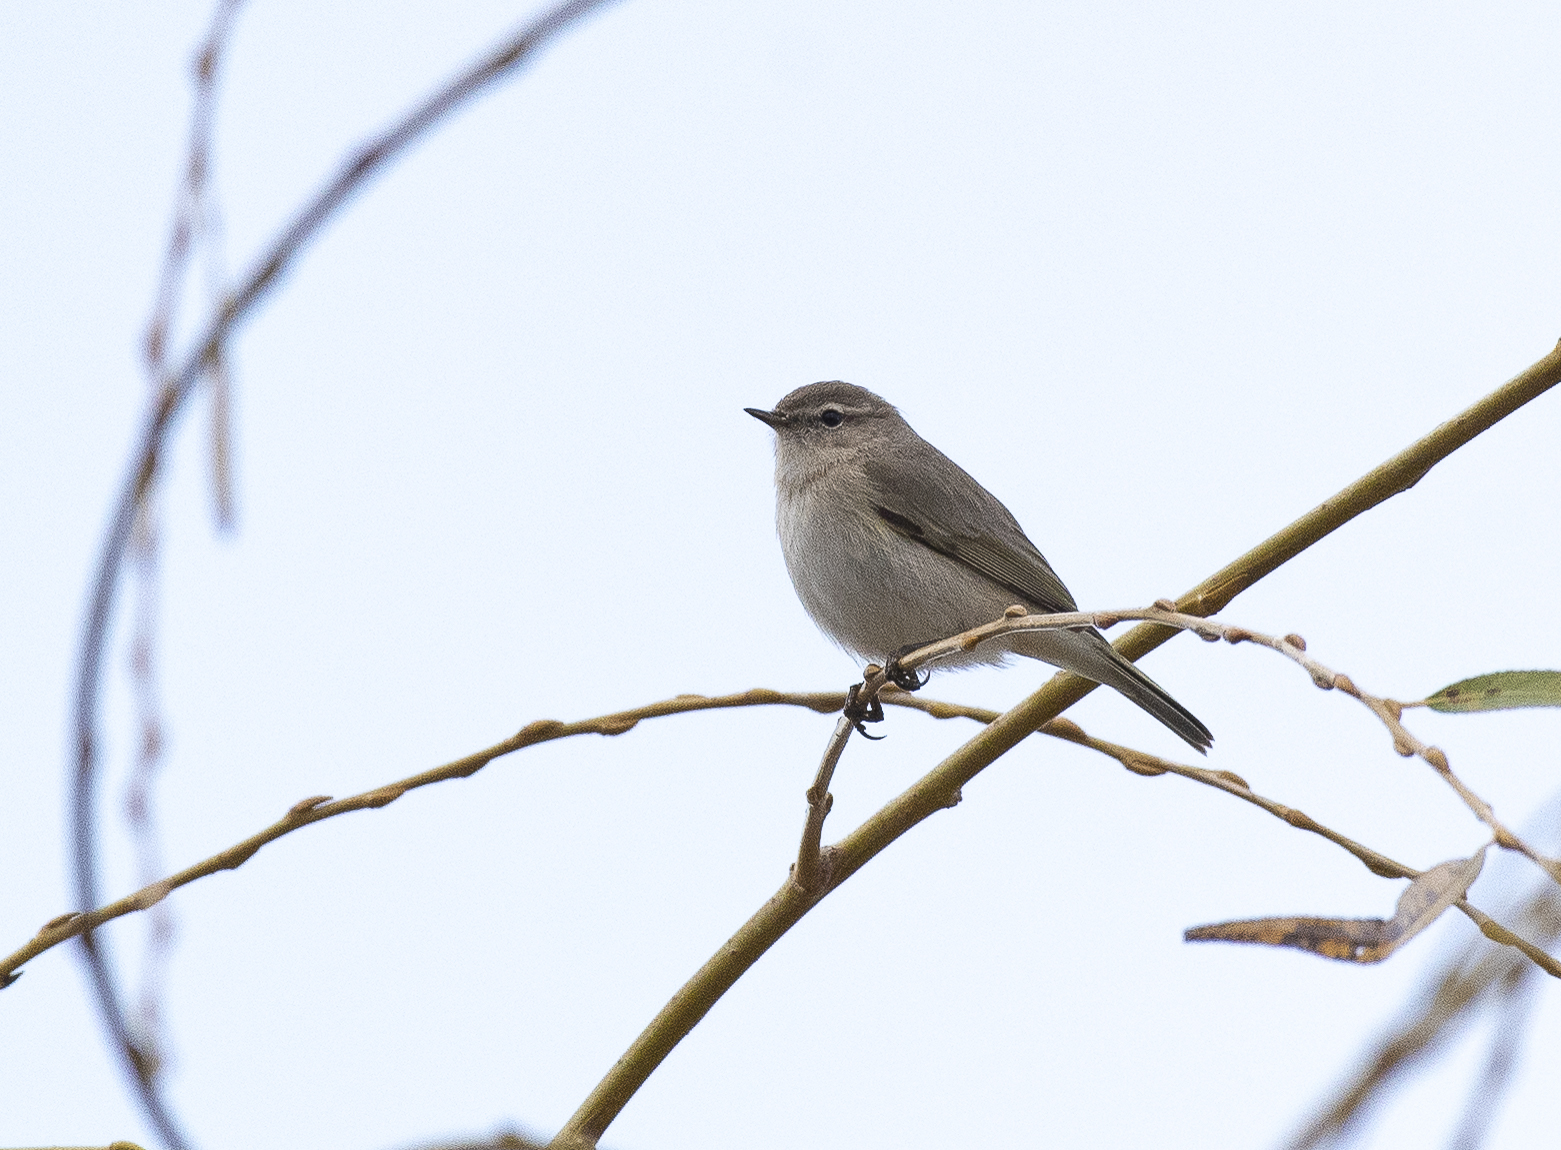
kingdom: Animalia
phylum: Chordata
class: Aves
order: Passeriformes
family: Phylloscopidae
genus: Phylloscopus
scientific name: Phylloscopus collybita
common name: Common chiffchaff
